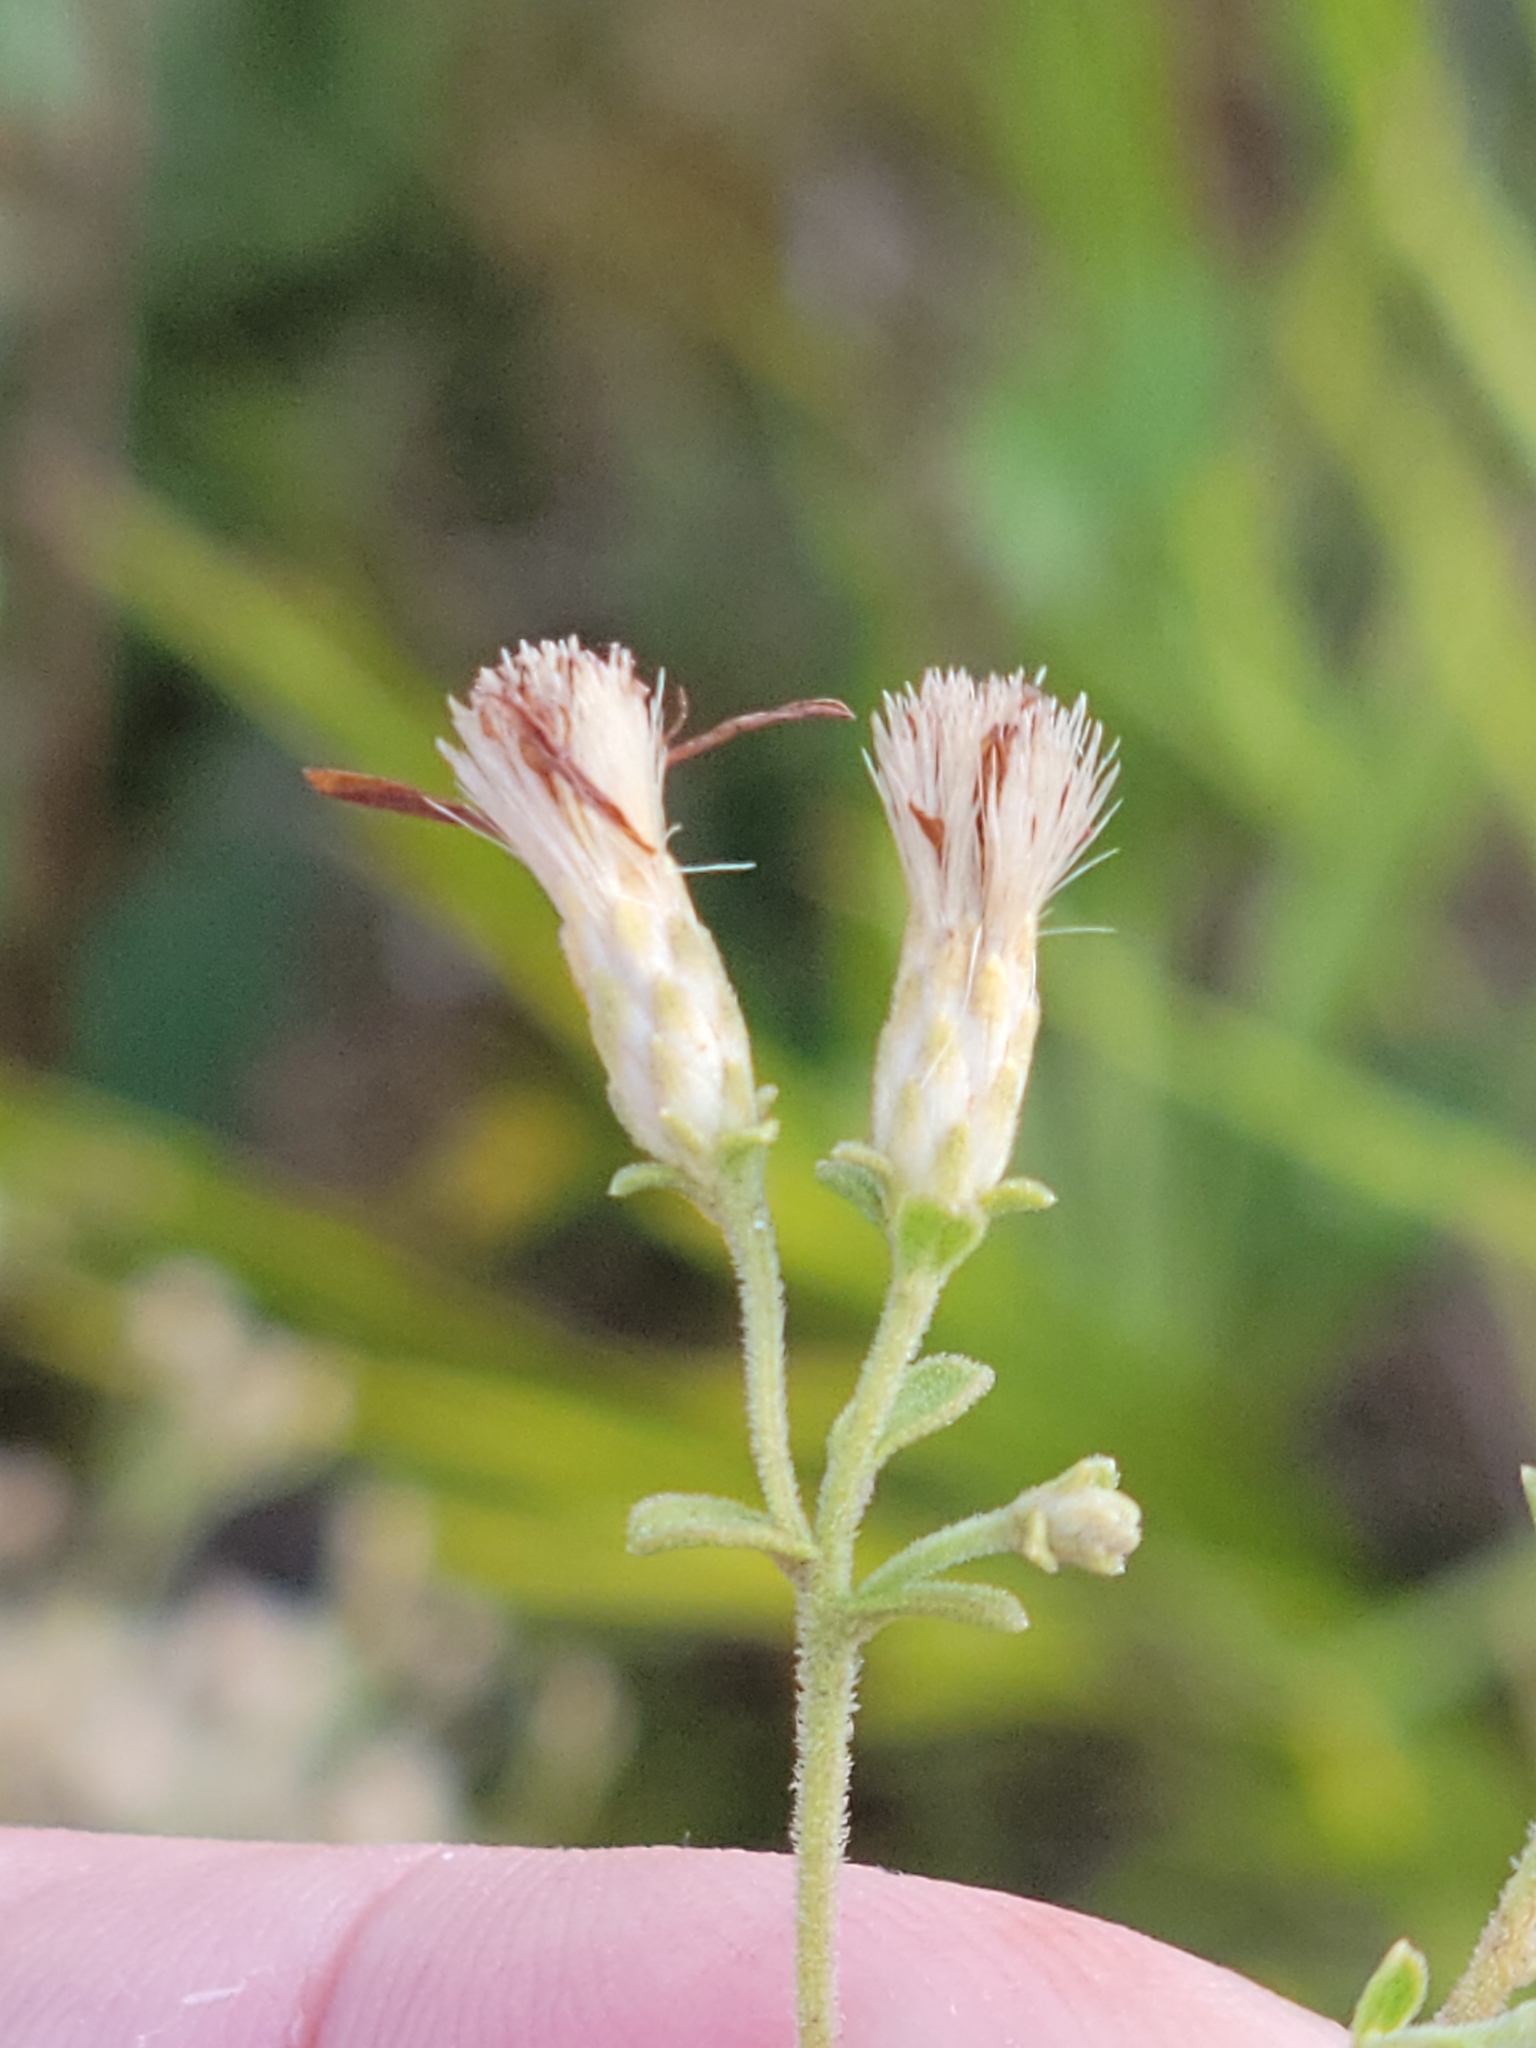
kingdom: Plantae
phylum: Tracheophyta
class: Magnoliopsida
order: Asterales
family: Asteraceae
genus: Sericocarpus
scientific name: Sericocarpus tortifolius
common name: Dixie aster
